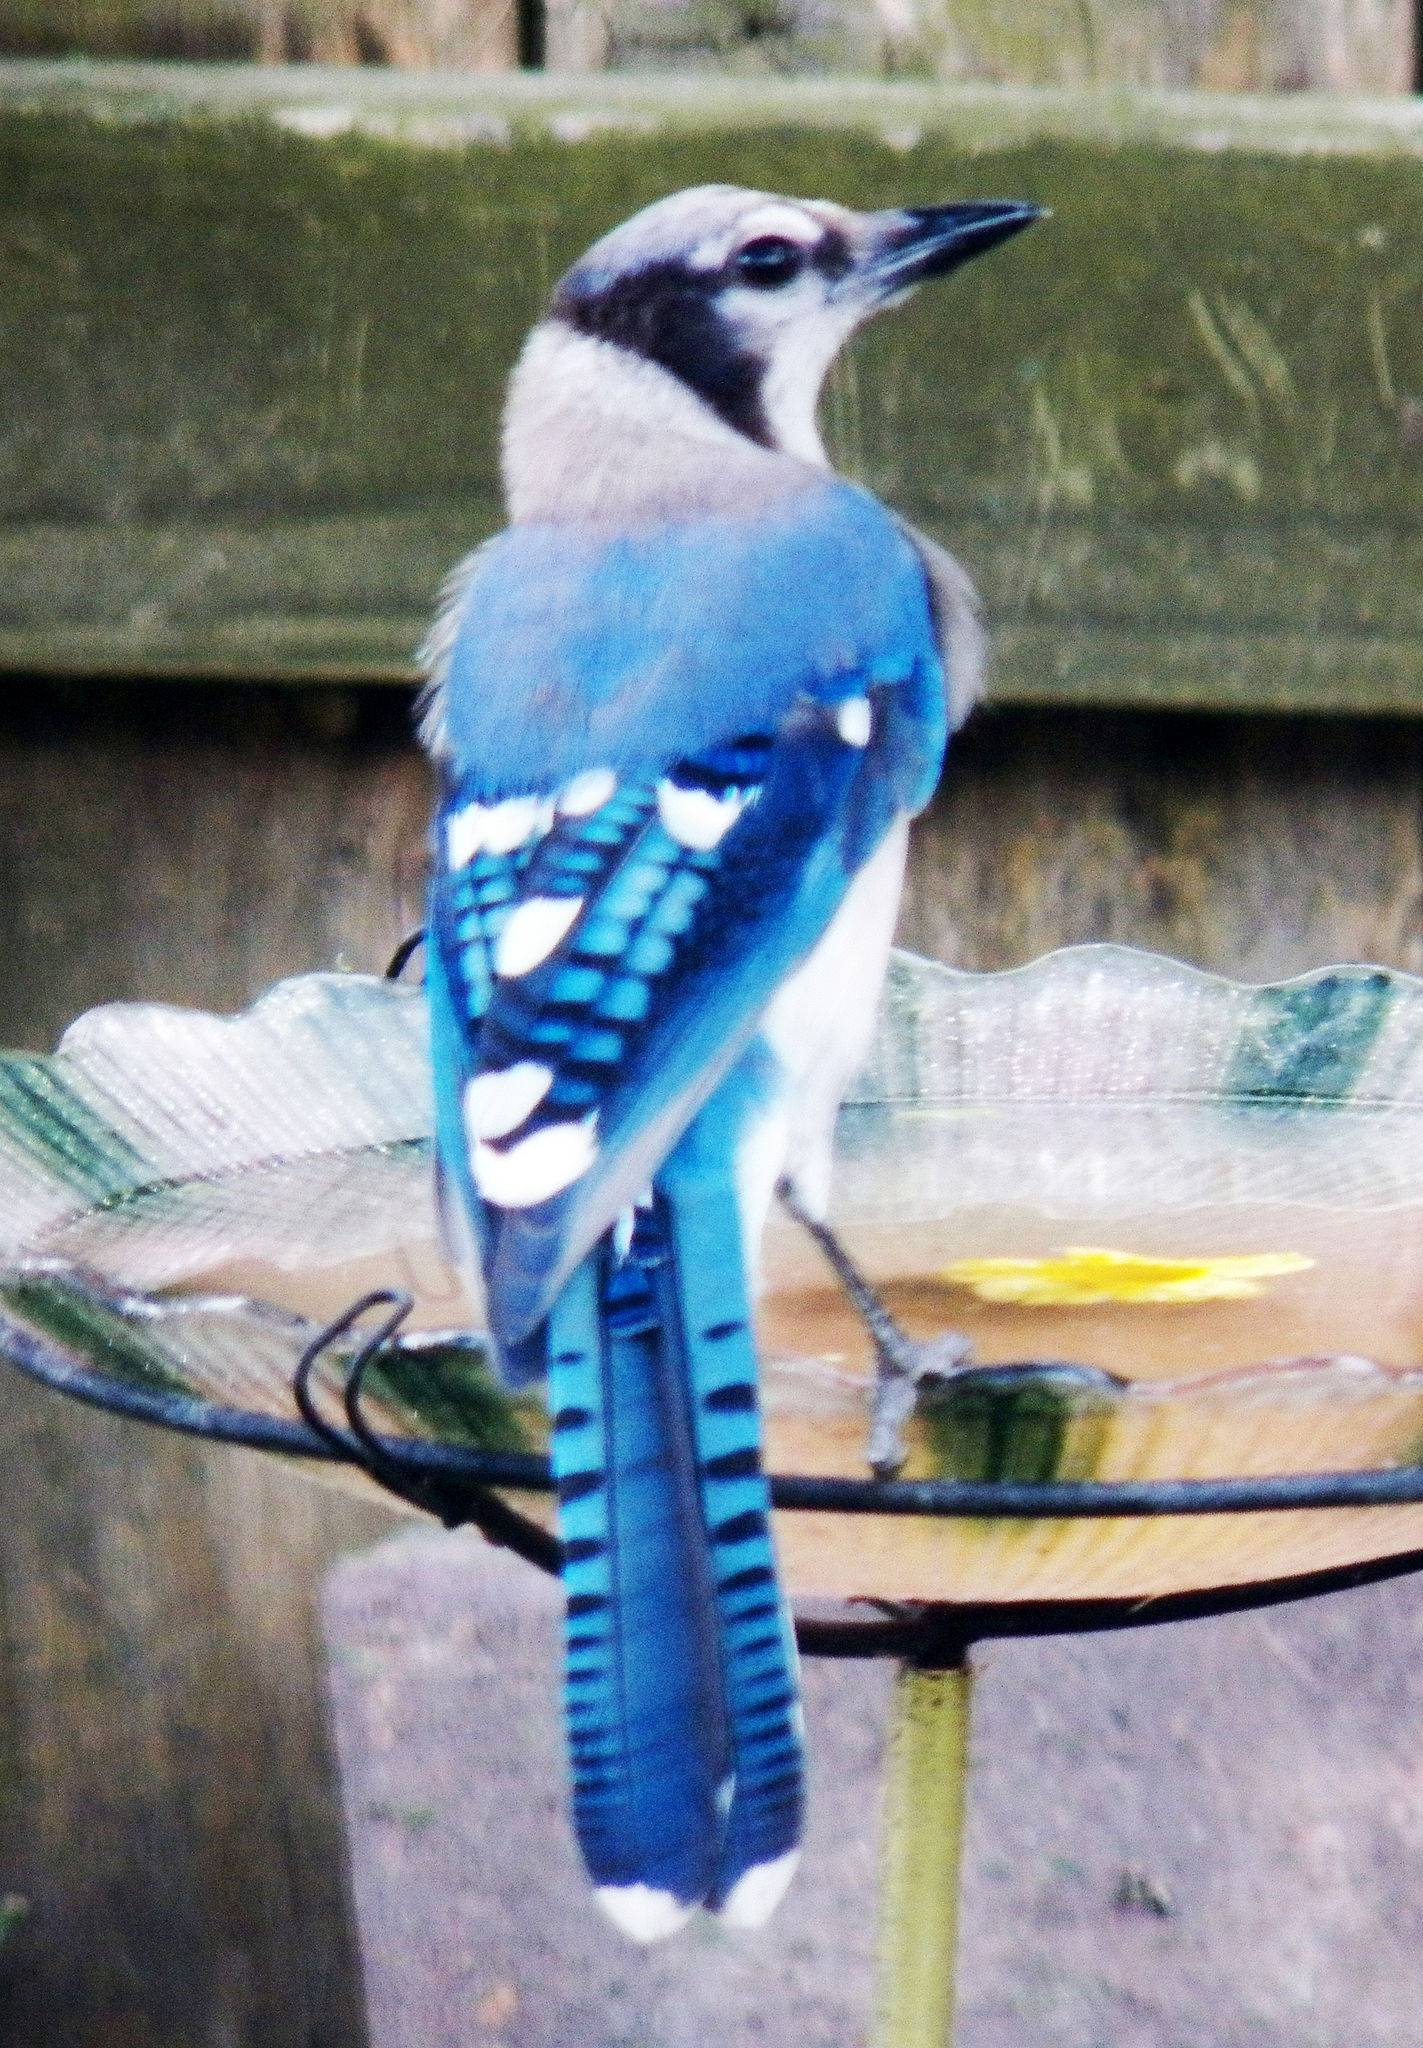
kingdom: Animalia
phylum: Chordata
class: Aves
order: Passeriformes
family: Corvidae
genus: Cyanocitta
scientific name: Cyanocitta cristata
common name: Blue jay
